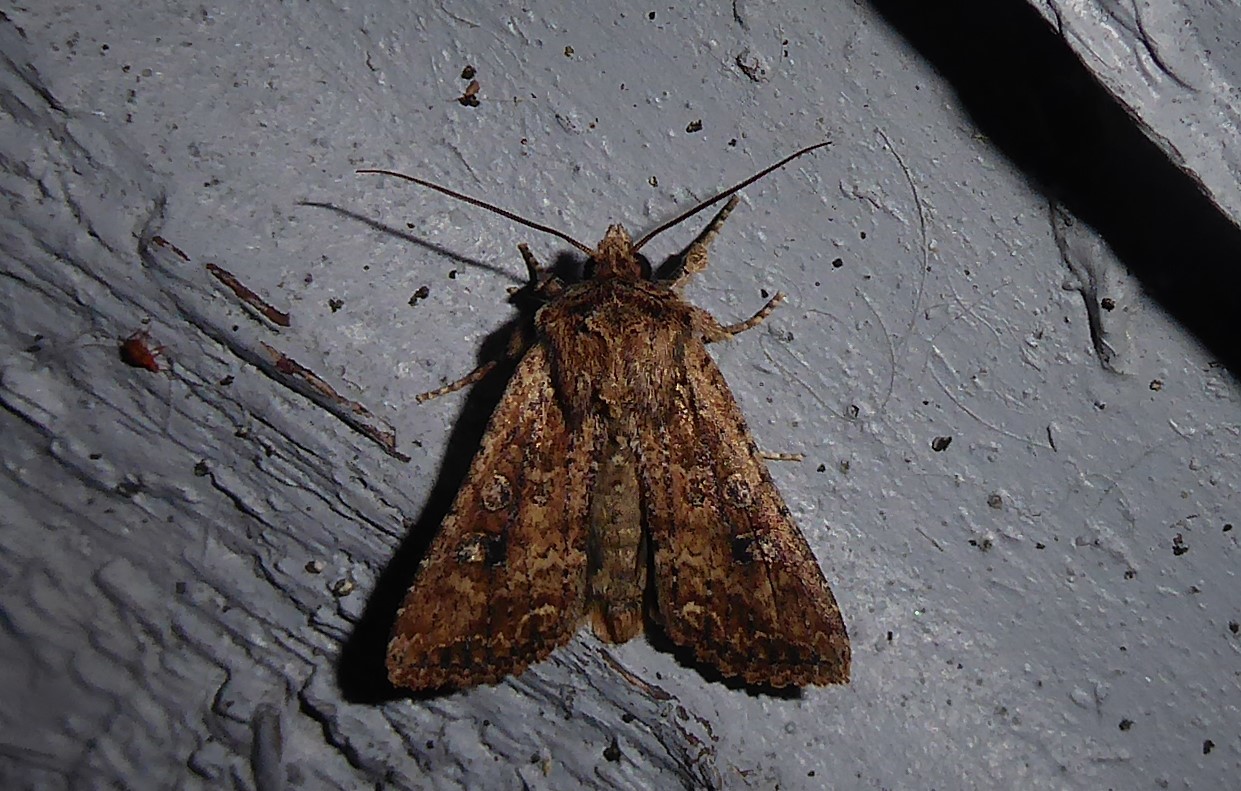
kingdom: Animalia
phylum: Arthropoda
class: Insecta
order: Lepidoptera
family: Noctuidae
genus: Ichneutica
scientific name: Ichneutica morosa
